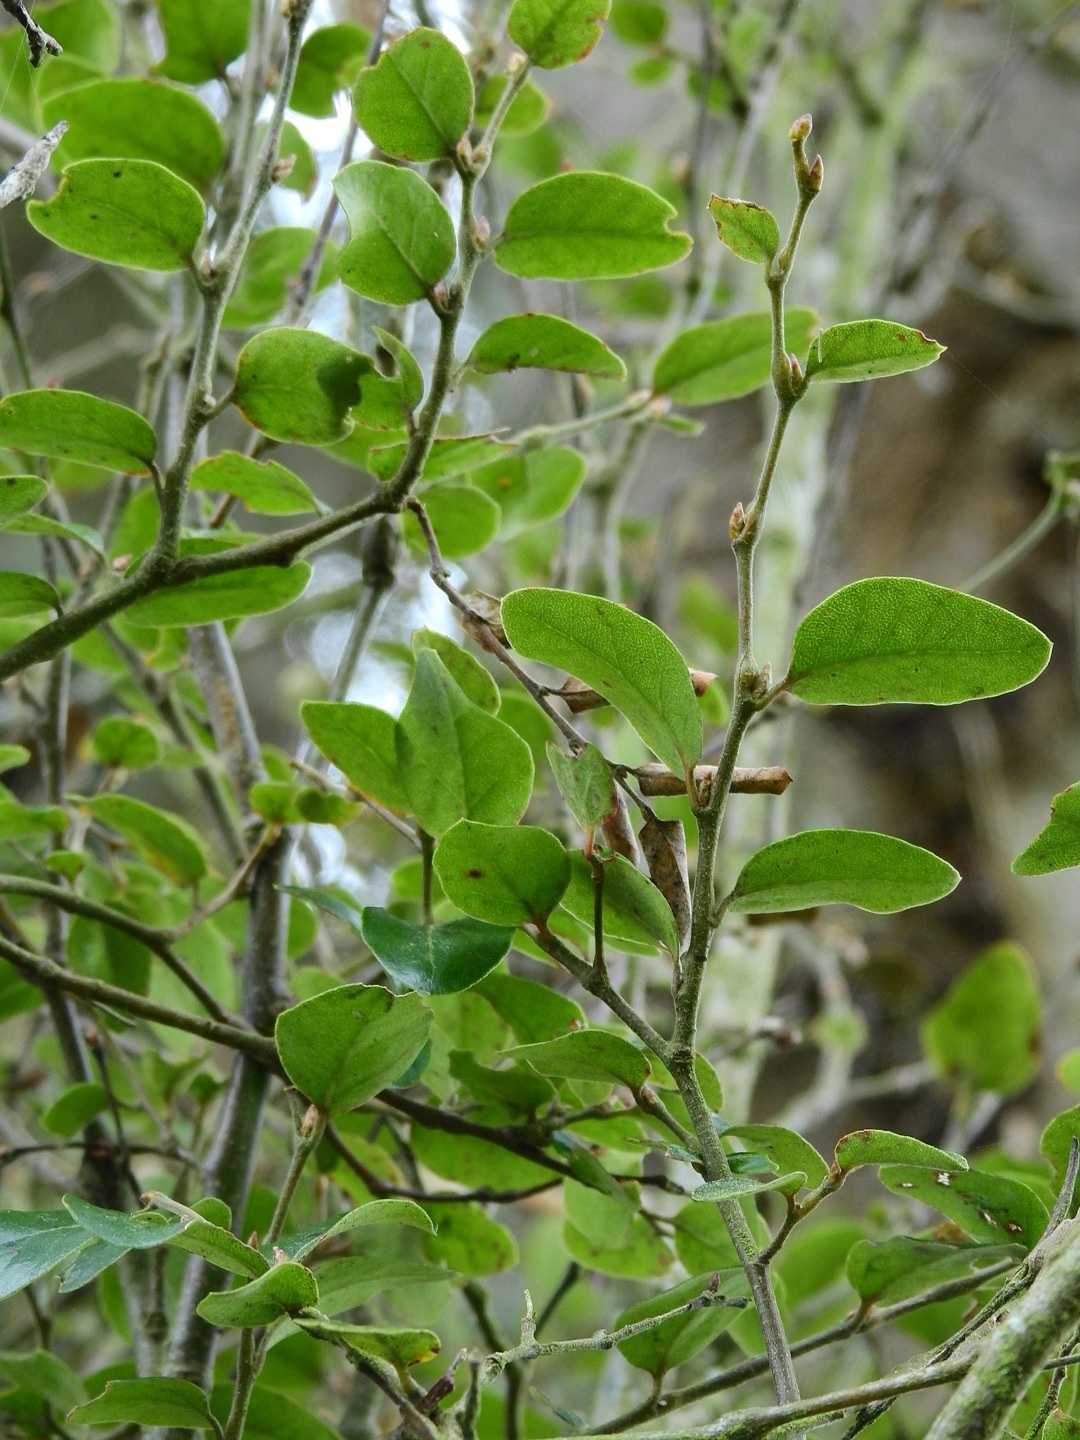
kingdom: Plantae
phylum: Tracheophyta
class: Magnoliopsida
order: Fagales
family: Nothofagaceae
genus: Nothofagus
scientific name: Nothofagus solandri
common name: Black beech
